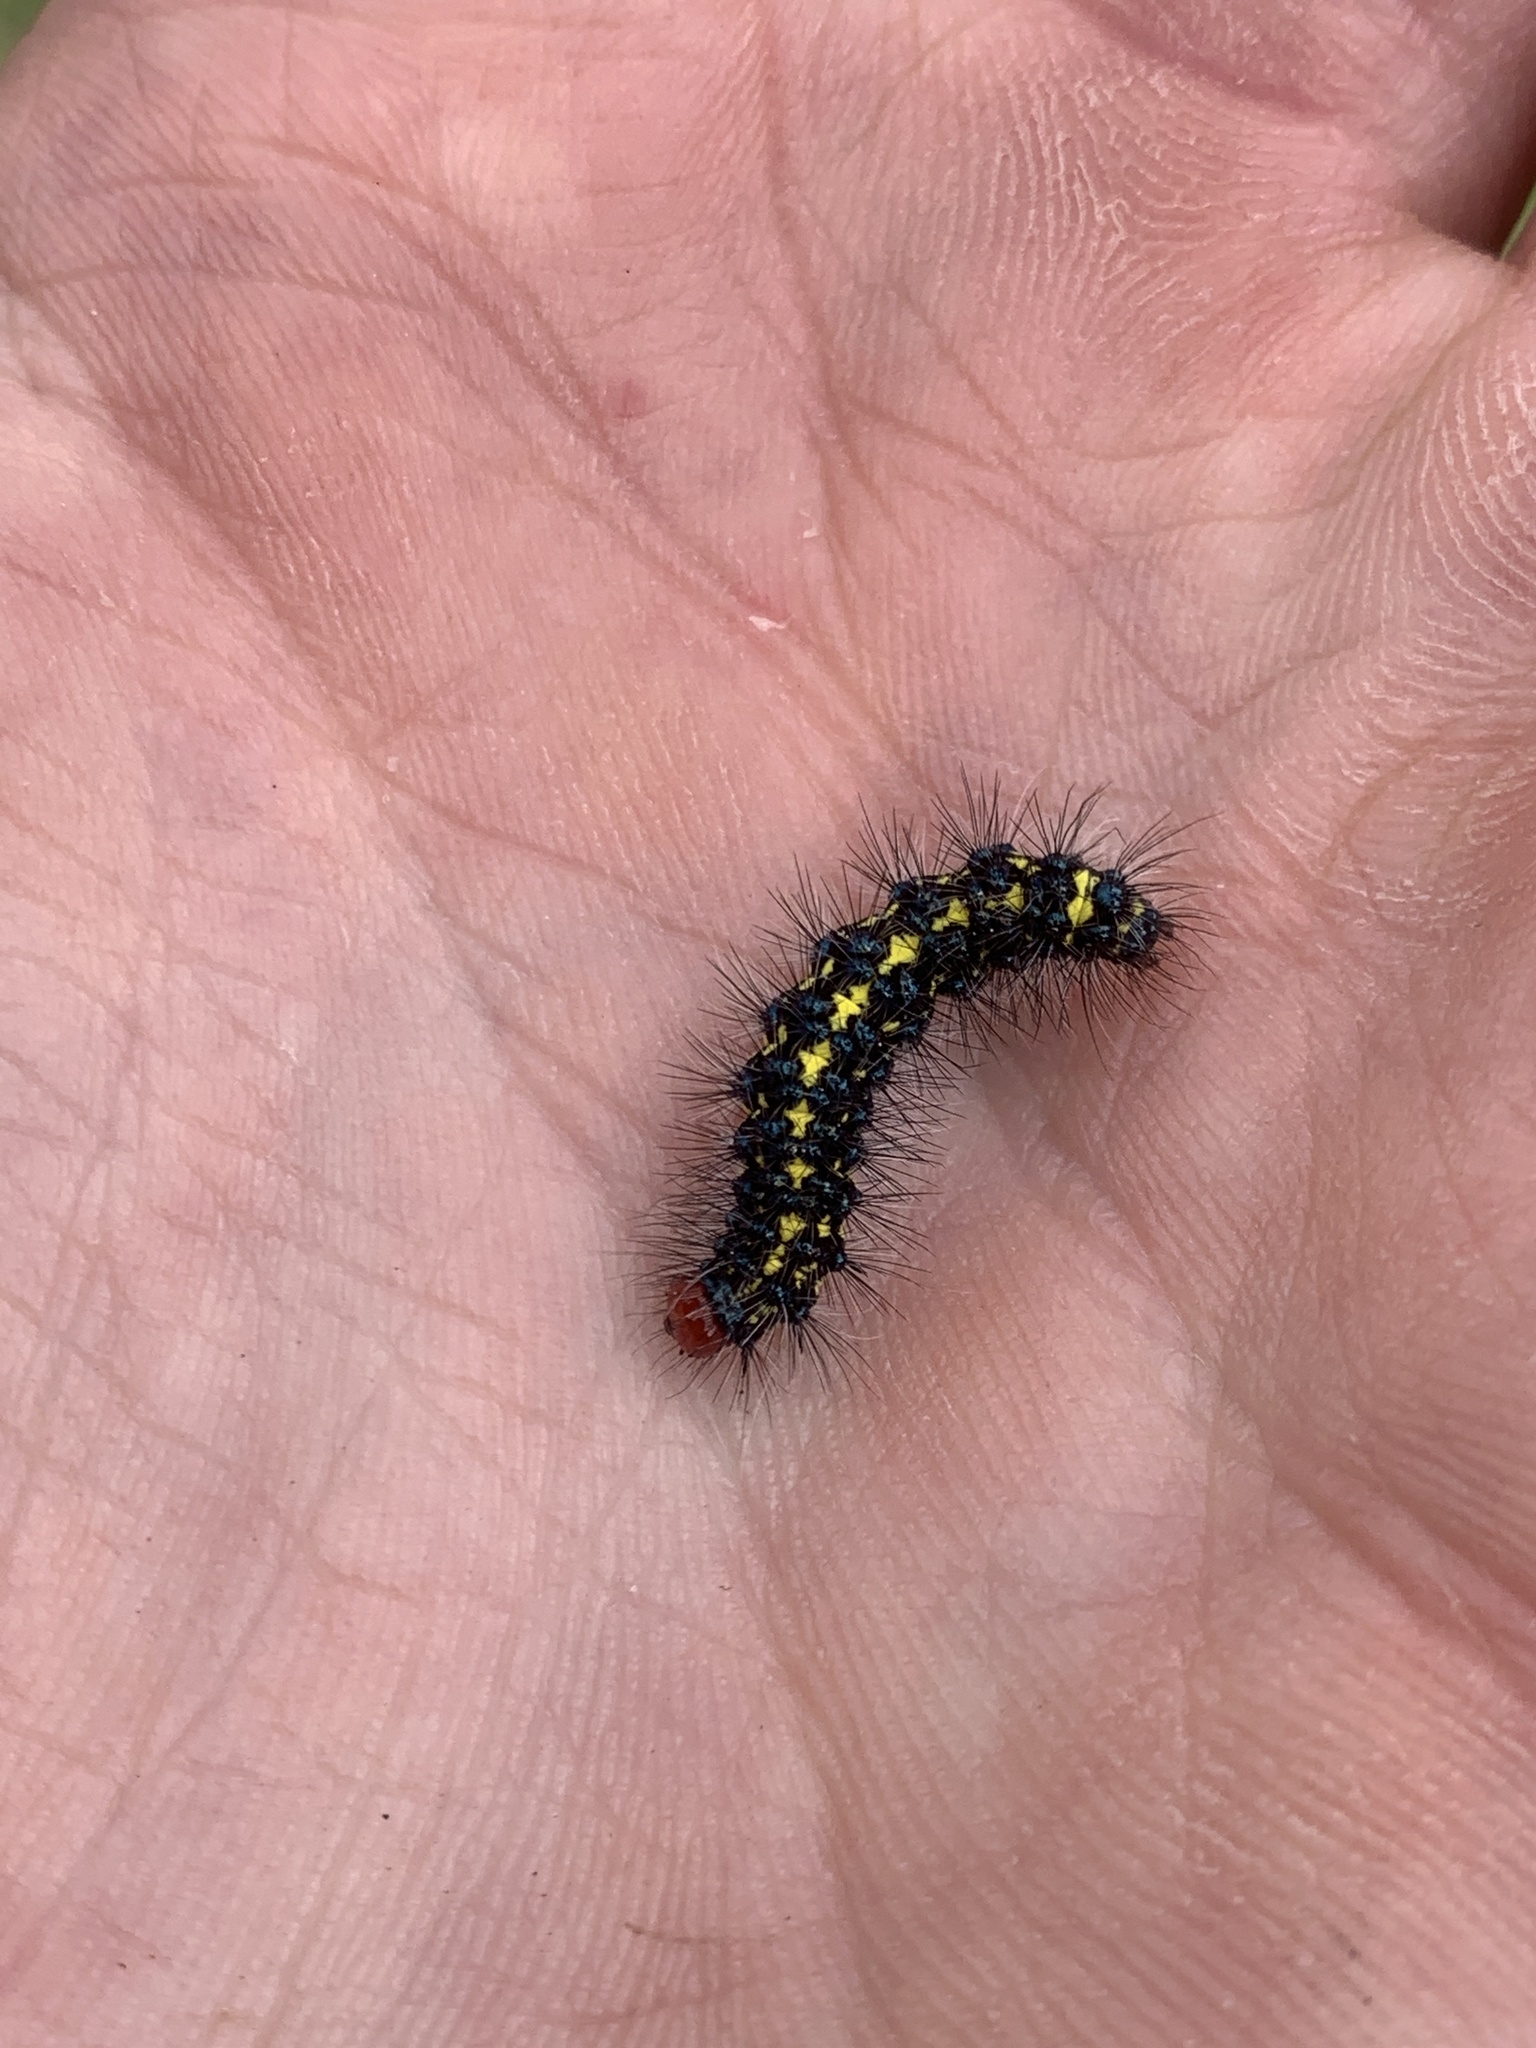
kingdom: Animalia
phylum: Arthropoda
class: Insecta
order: Lepidoptera
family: Erebidae
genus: Gnophaela
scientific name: Gnophaela vermiculata
